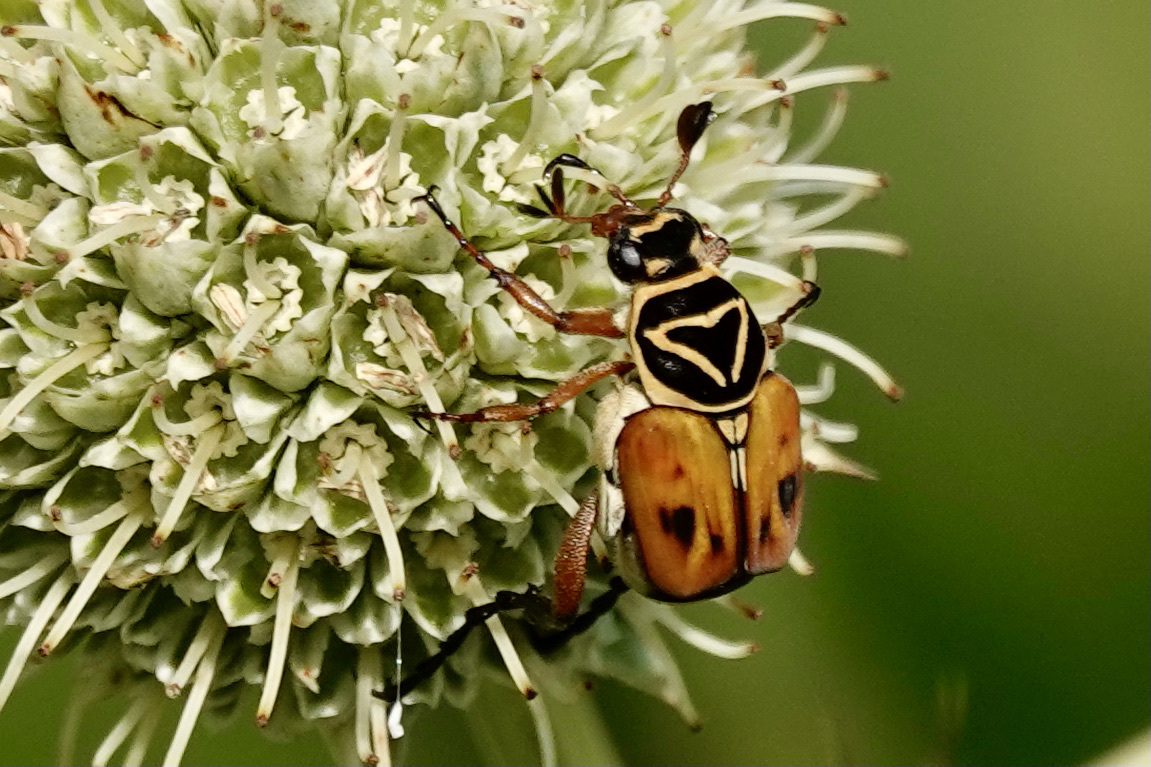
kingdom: Animalia
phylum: Arthropoda
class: Insecta
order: Coleoptera
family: Scarabaeidae
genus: Trigonopeltastes
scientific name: Trigonopeltastes delta
